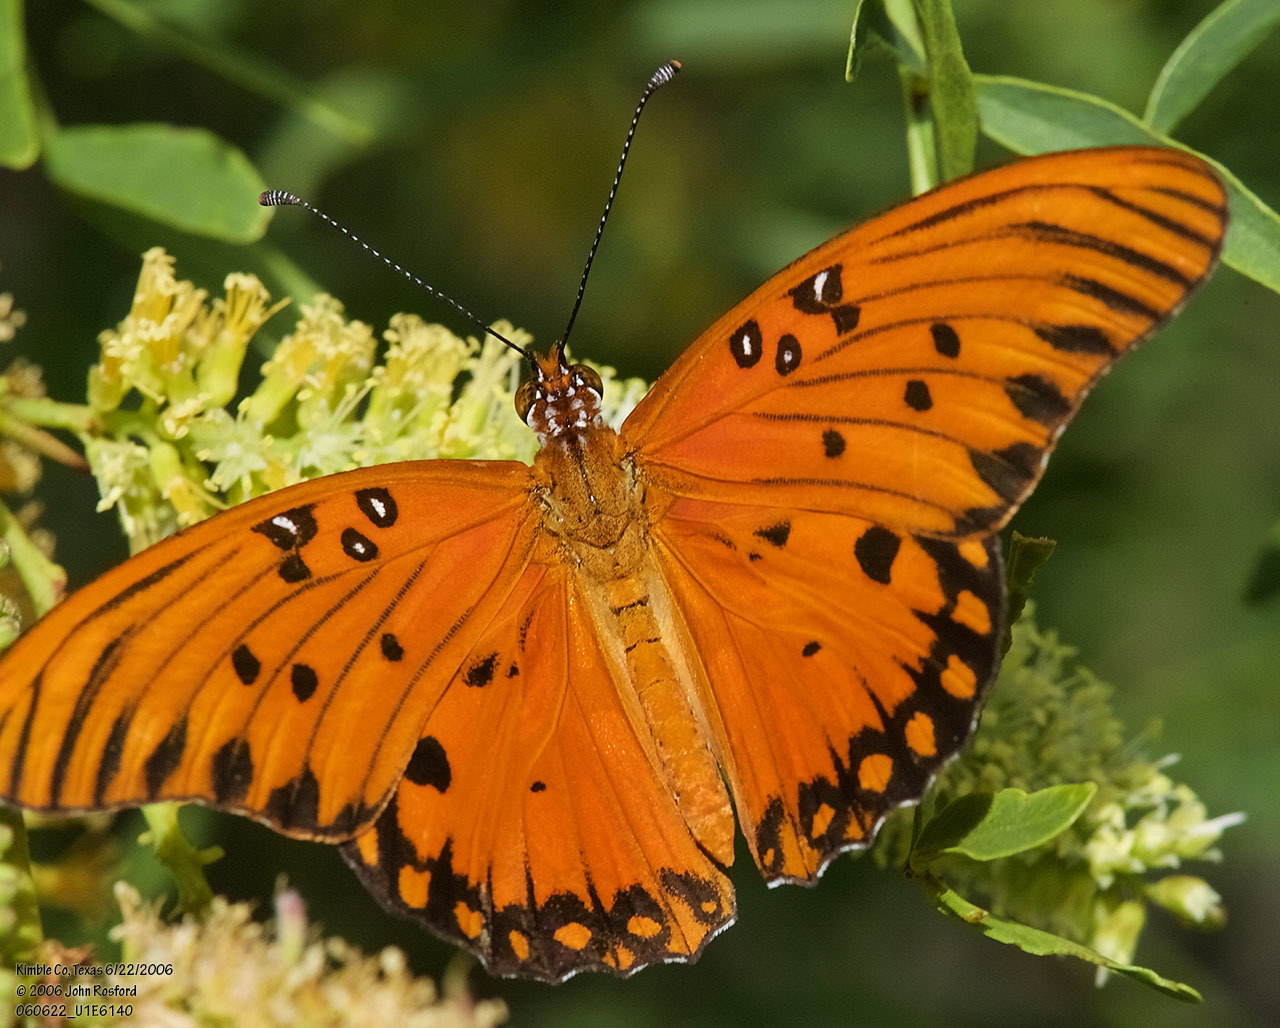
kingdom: Animalia
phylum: Arthropoda
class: Insecta
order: Lepidoptera
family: Nymphalidae
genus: Dione
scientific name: Dione vanillae
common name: Gulf fritillary
